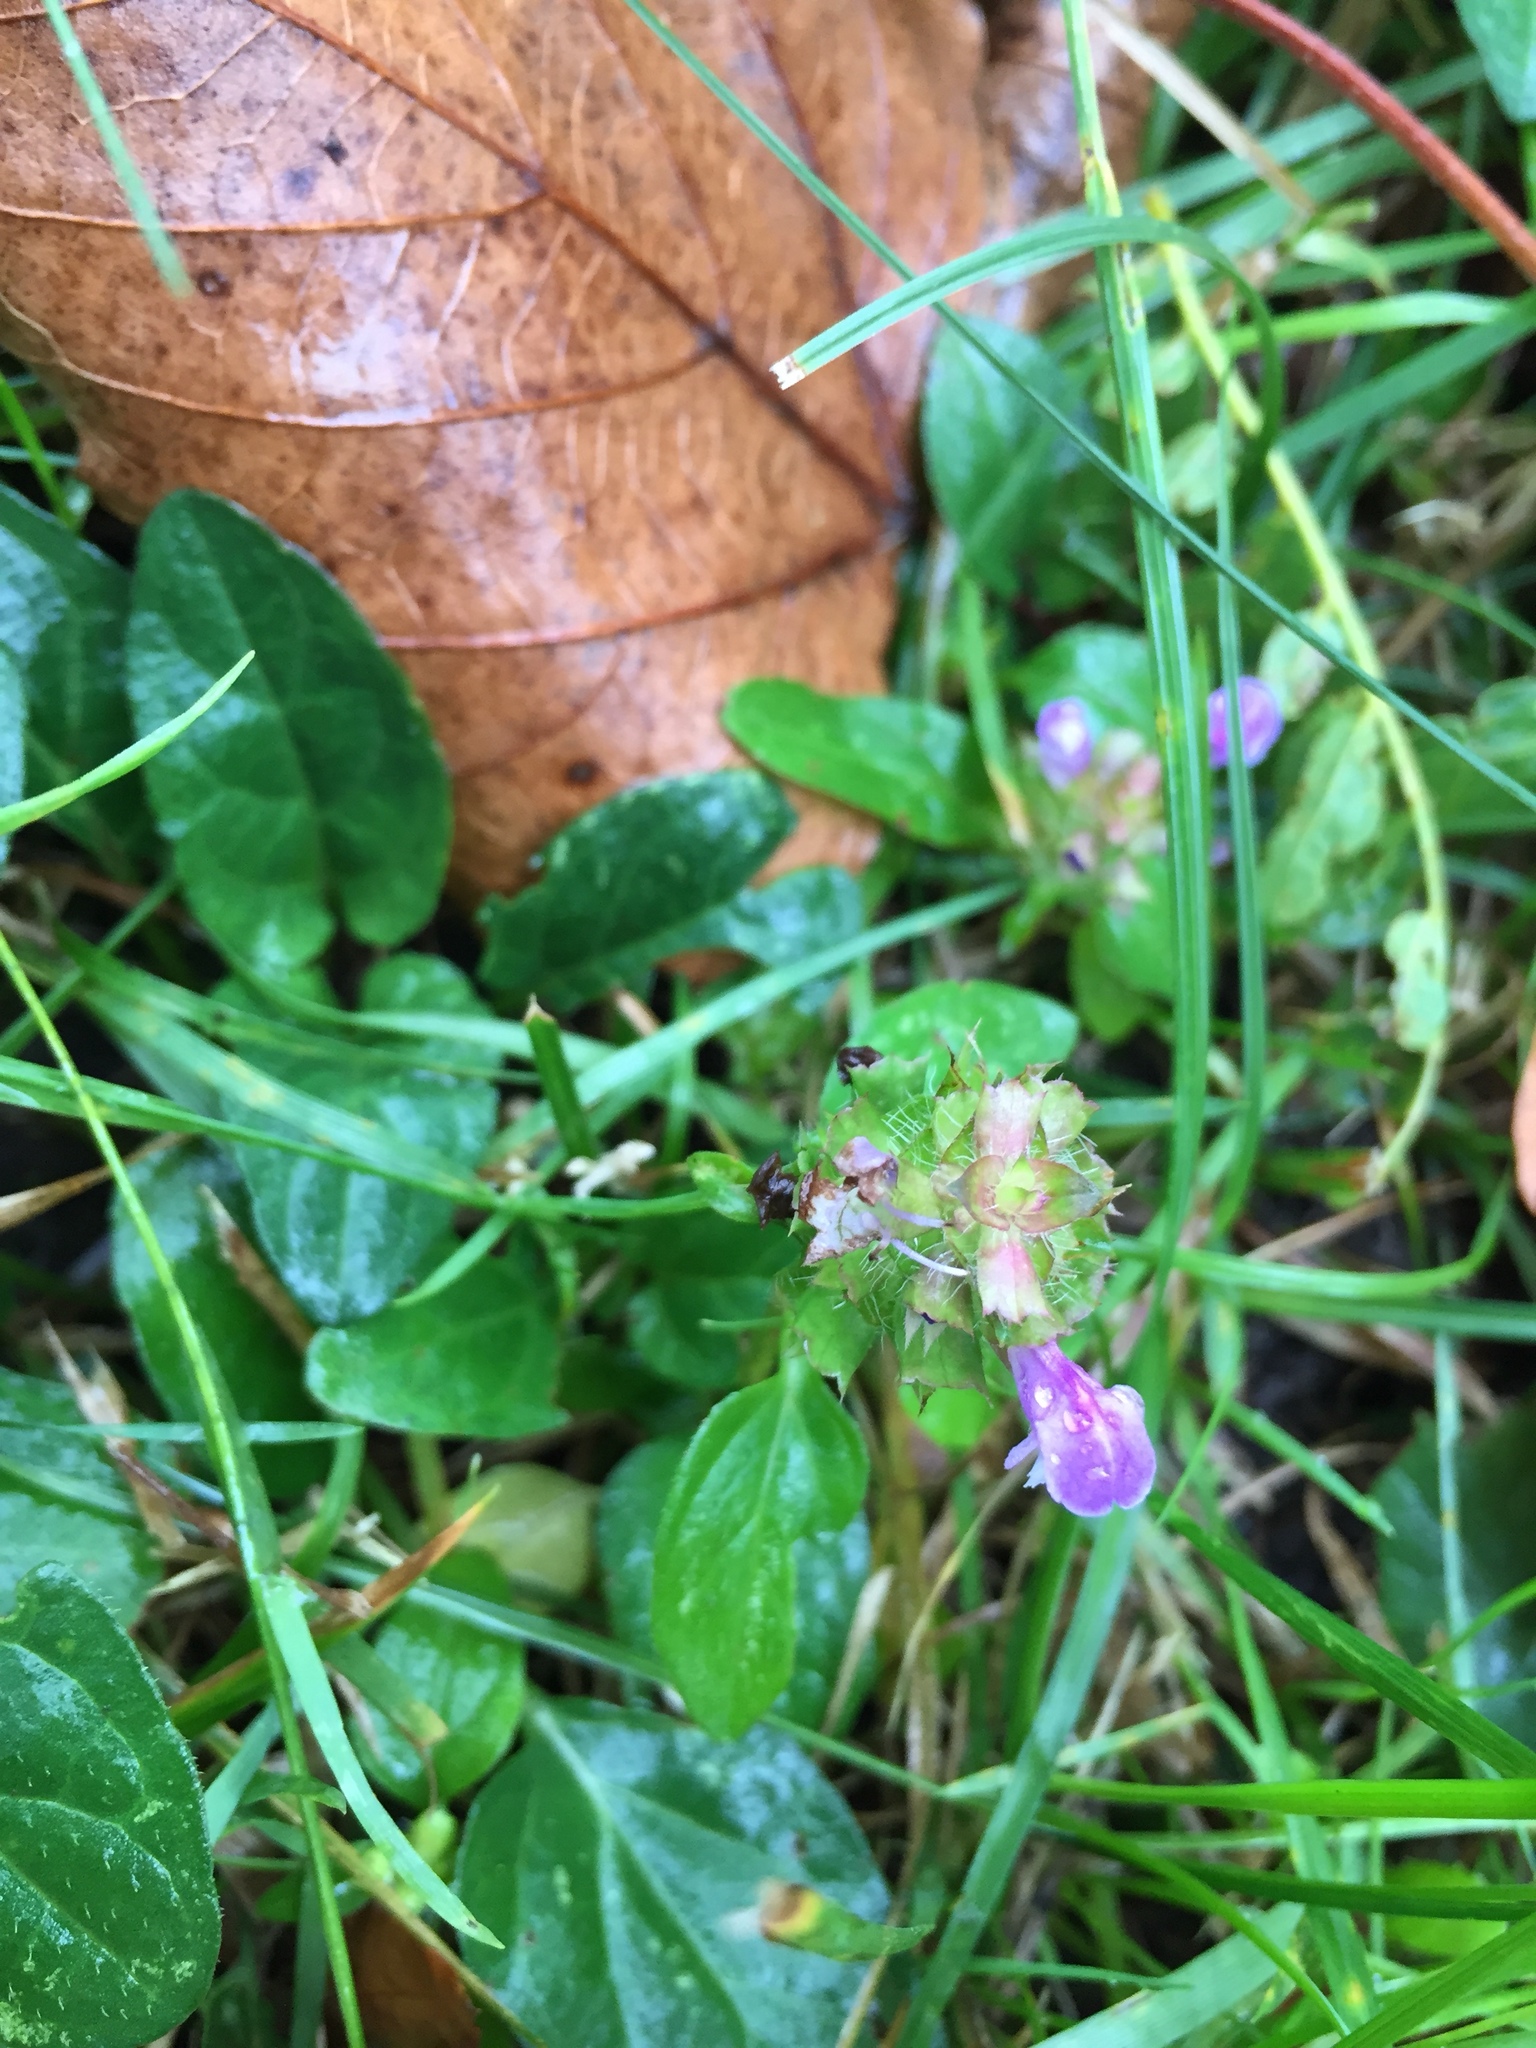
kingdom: Plantae
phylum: Tracheophyta
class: Magnoliopsida
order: Lamiales
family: Lamiaceae
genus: Prunella
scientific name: Prunella vulgaris
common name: Heal-all
